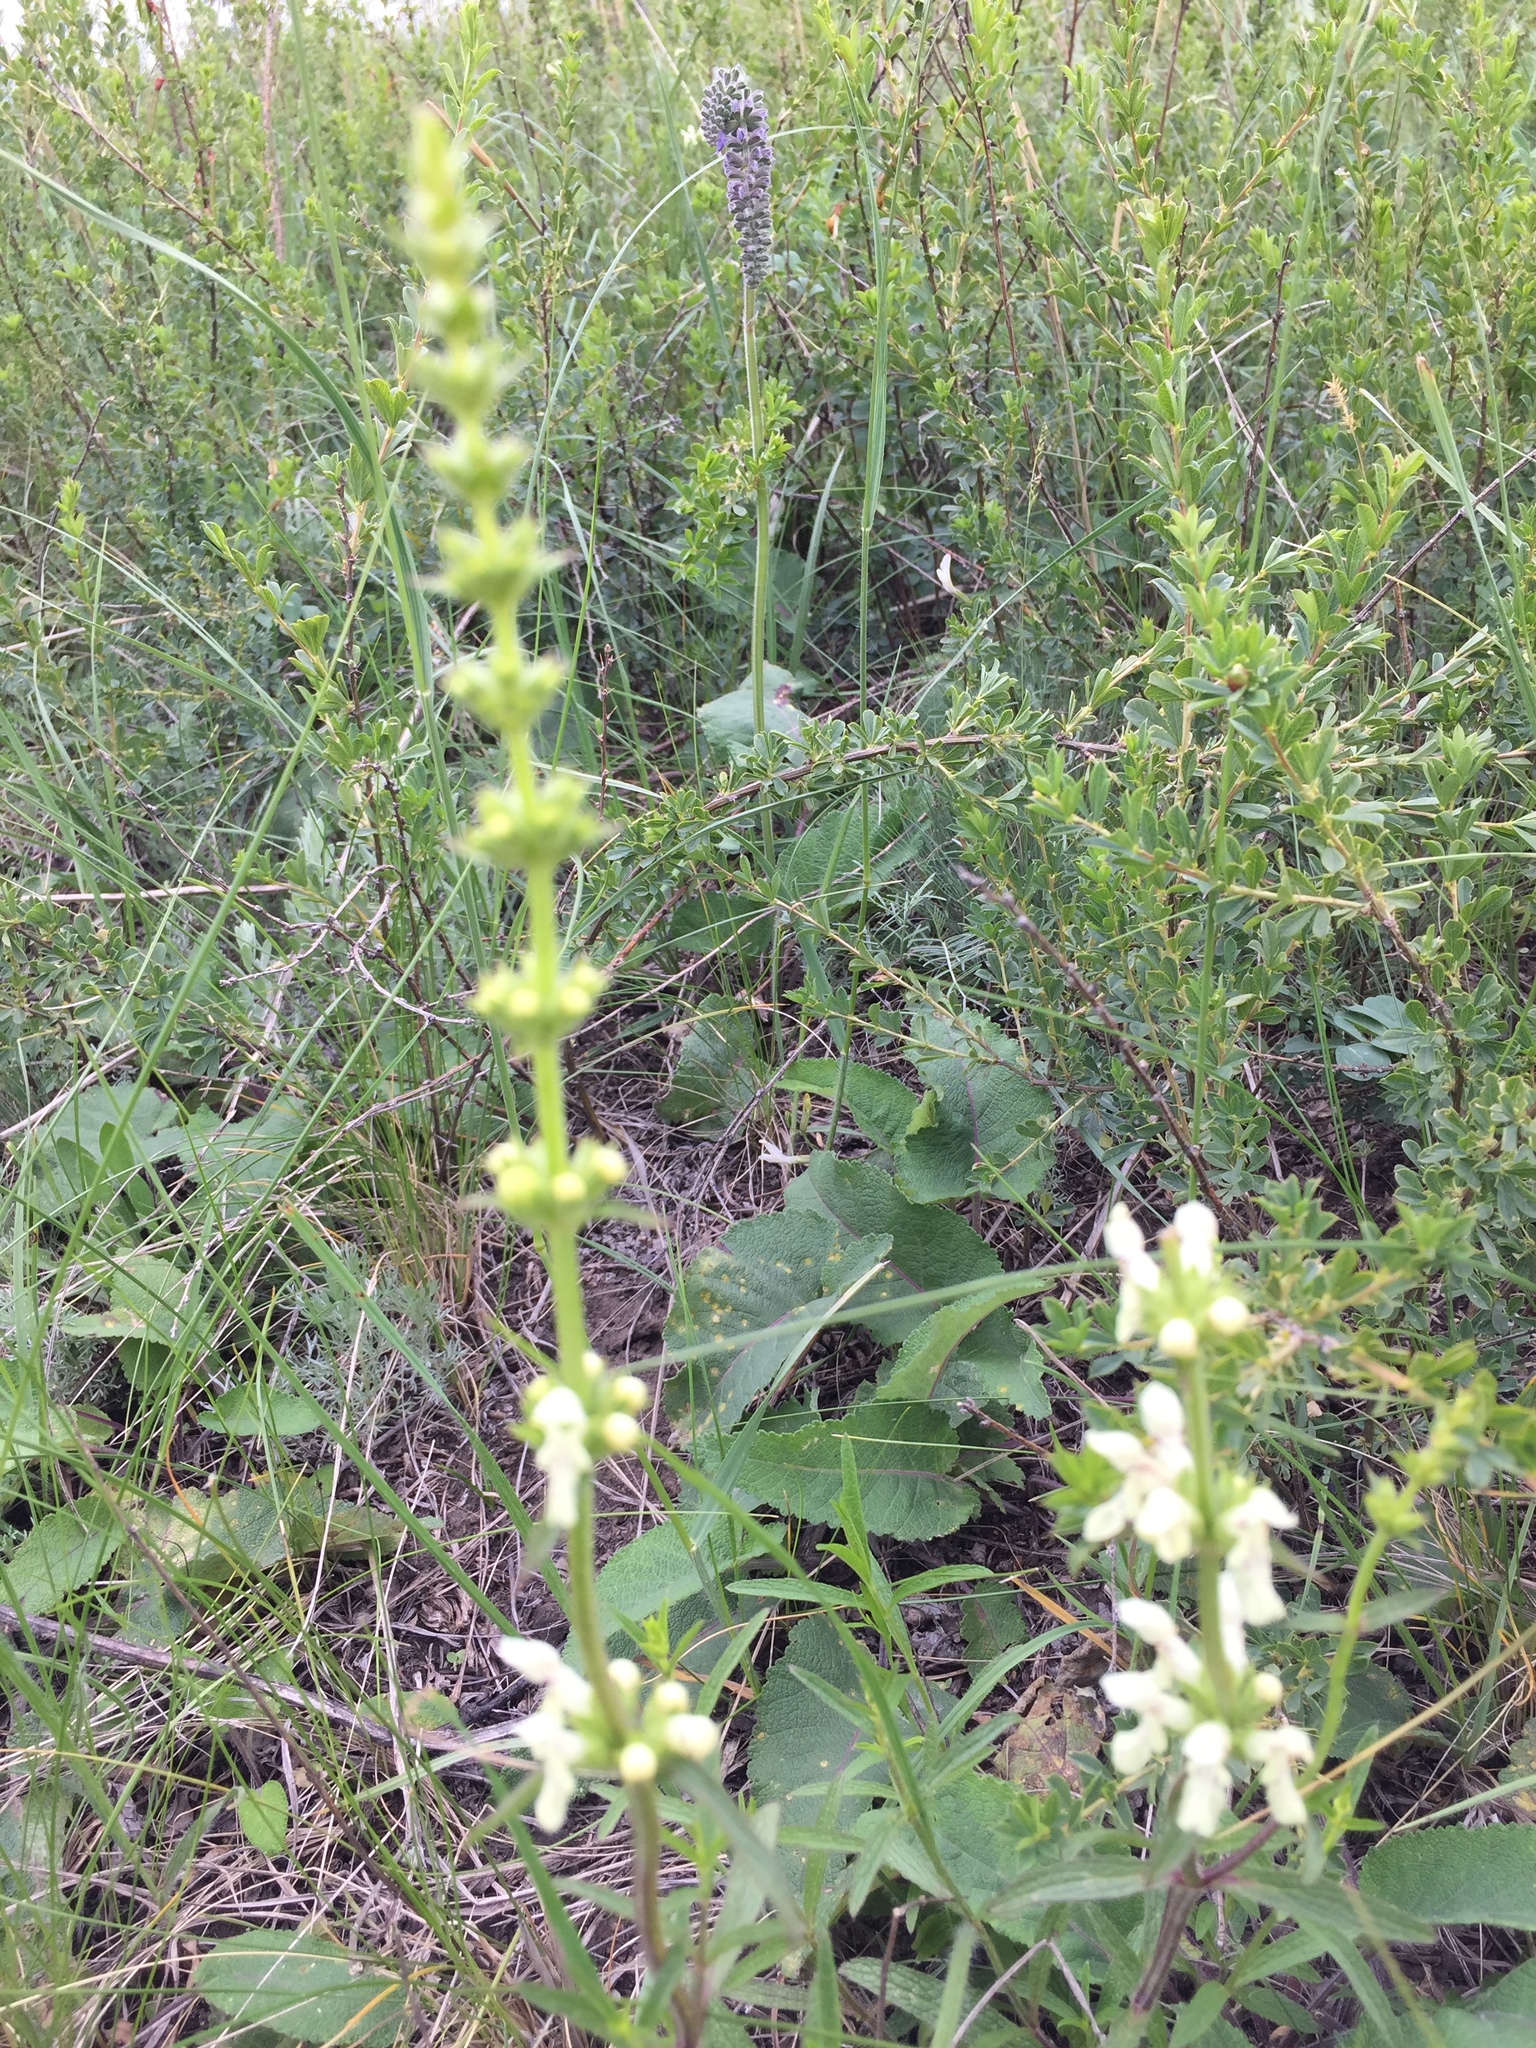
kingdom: Plantae
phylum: Tracheophyta
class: Magnoliopsida
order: Lamiales
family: Lamiaceae
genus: Stachys
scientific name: Stachys recta
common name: Perennial yellow-woundwort
